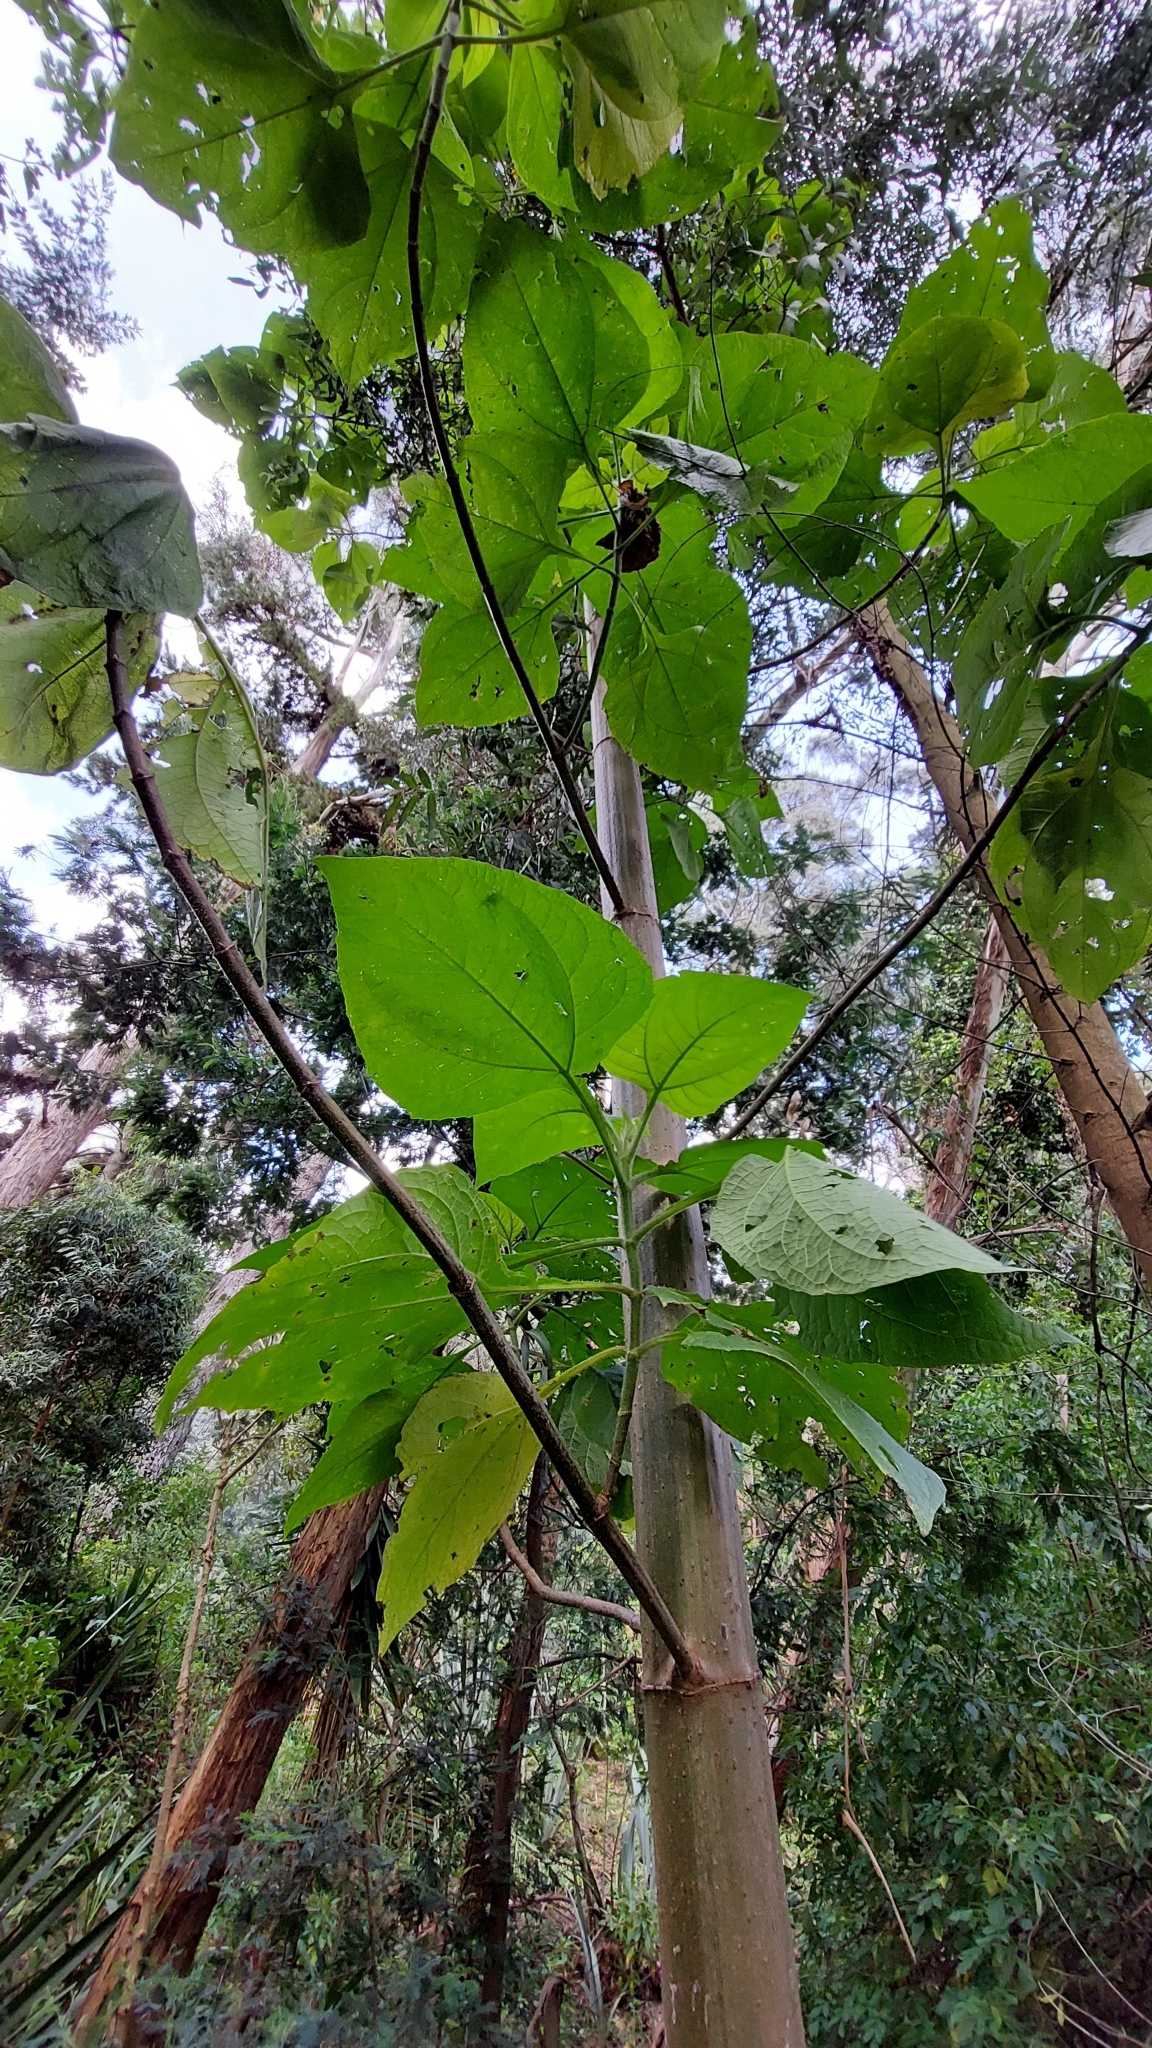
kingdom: Plantae
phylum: Tracheophyta
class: Magnoliopsida
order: Asterales
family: Asteraceae
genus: Smallanthus
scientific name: Smallanthus pyramidalis
